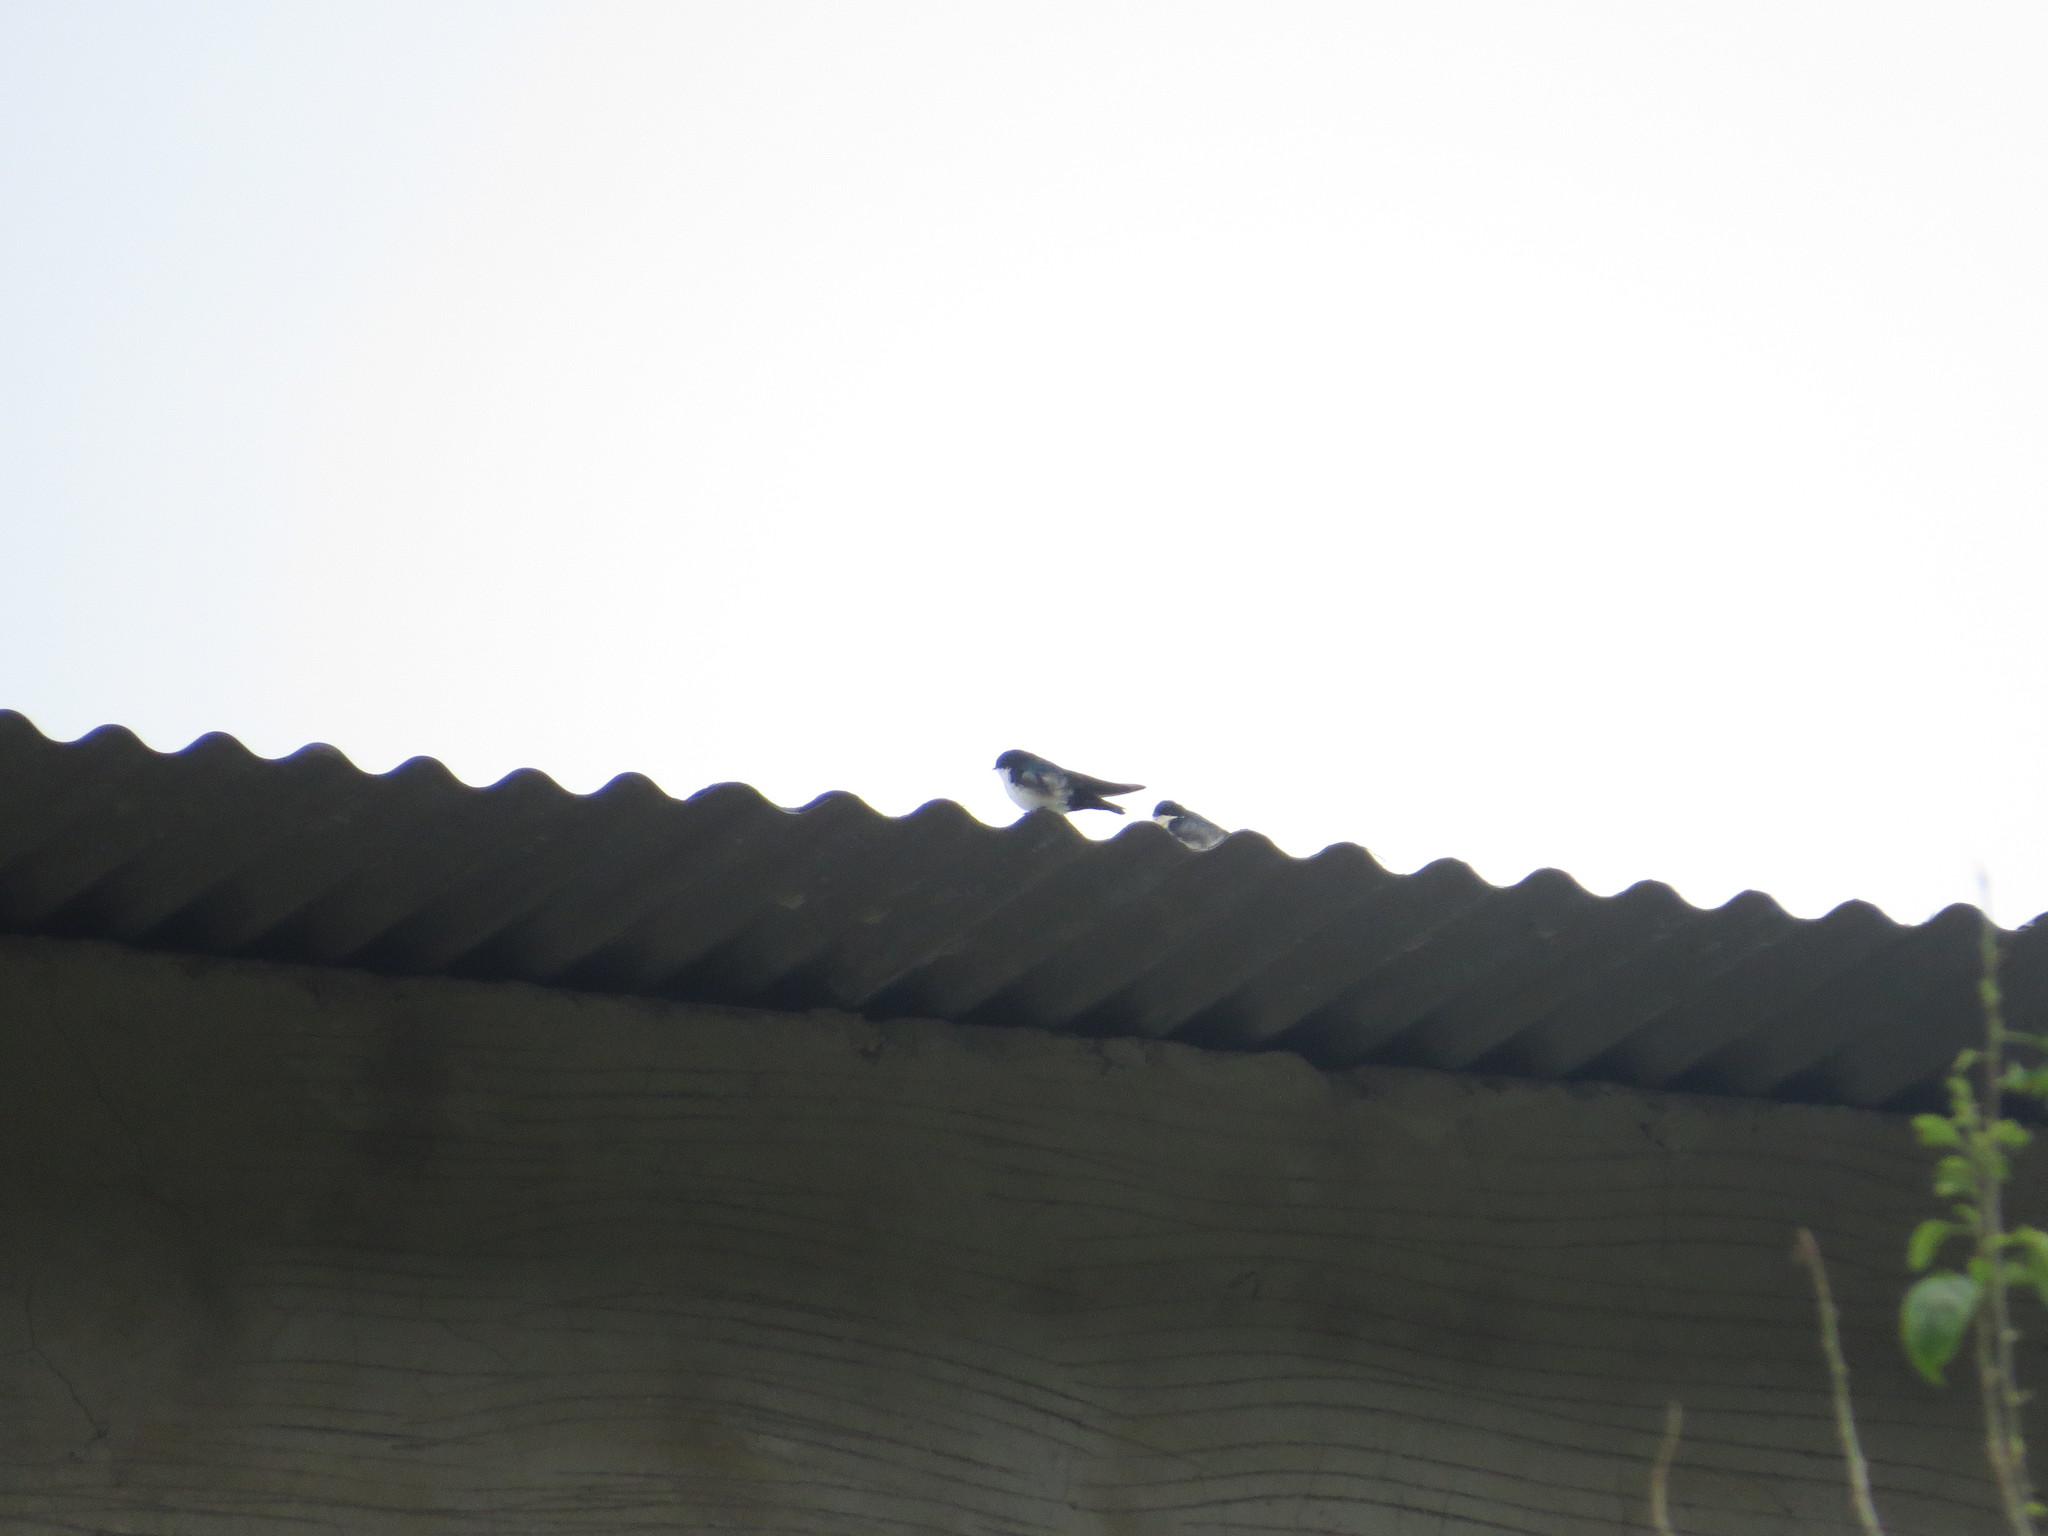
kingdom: Animalia
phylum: Chordata
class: Aves
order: Passeriformes
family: Hirundinidae
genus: Notiochelidon
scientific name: Notiochelidon cyanoleuca
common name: Blue-and-white swallow
